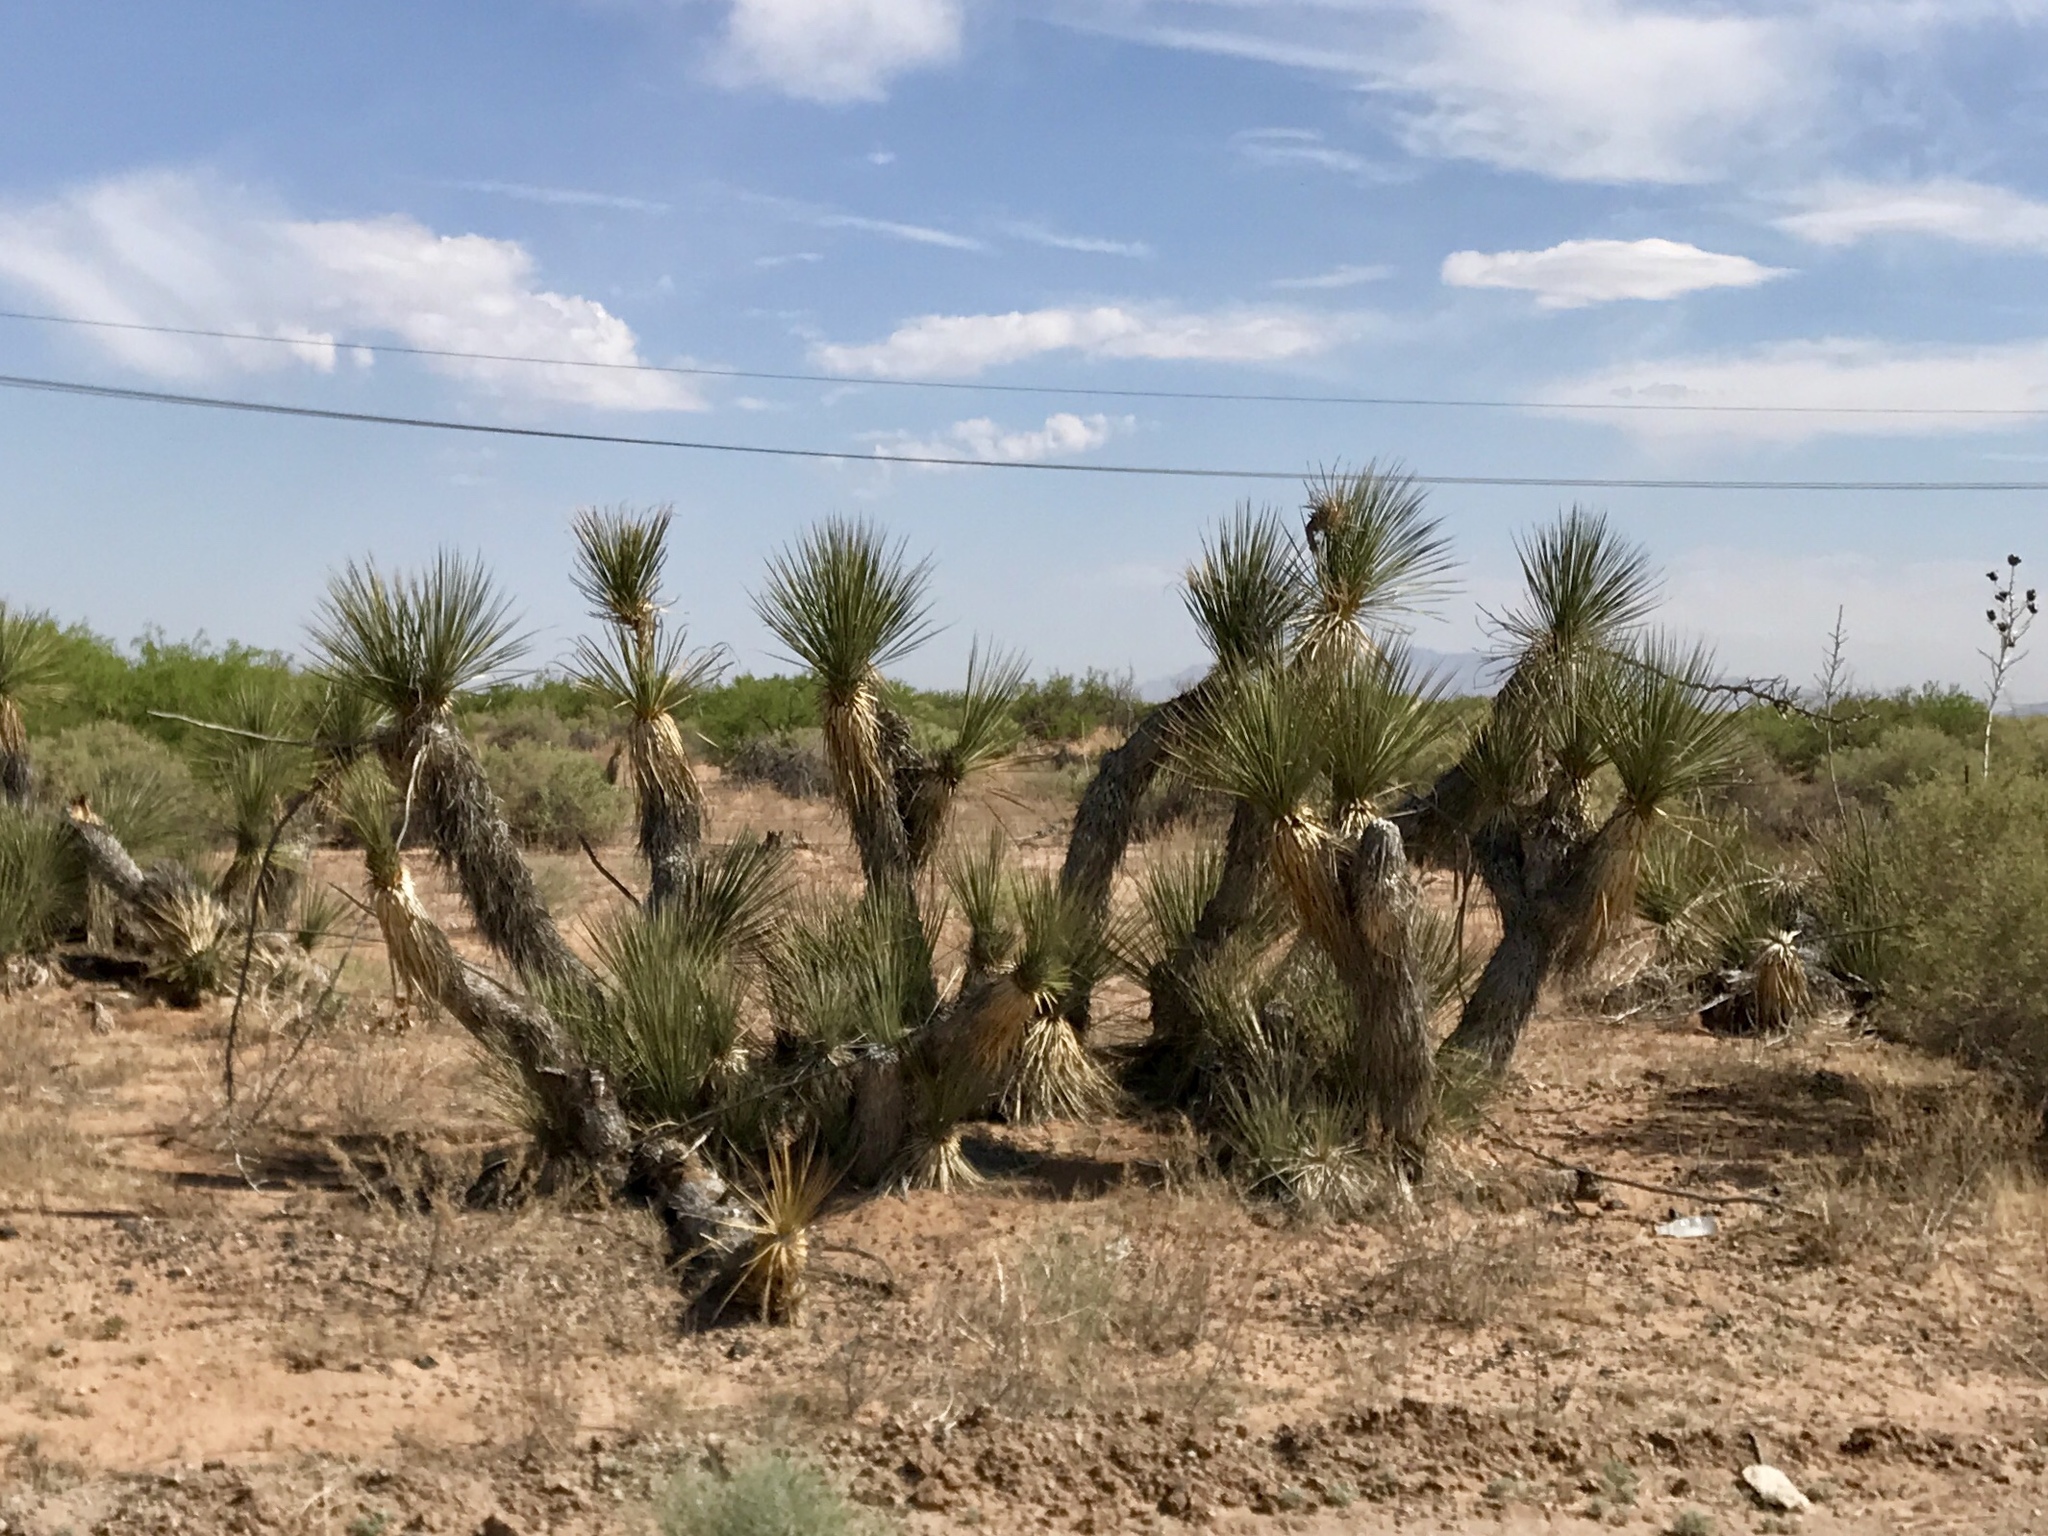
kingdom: Plantae
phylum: Tracheophyta
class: Liliopsida
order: Asparagales
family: Asparagaceae
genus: Yucca
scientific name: Yucca elata
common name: Palmella
